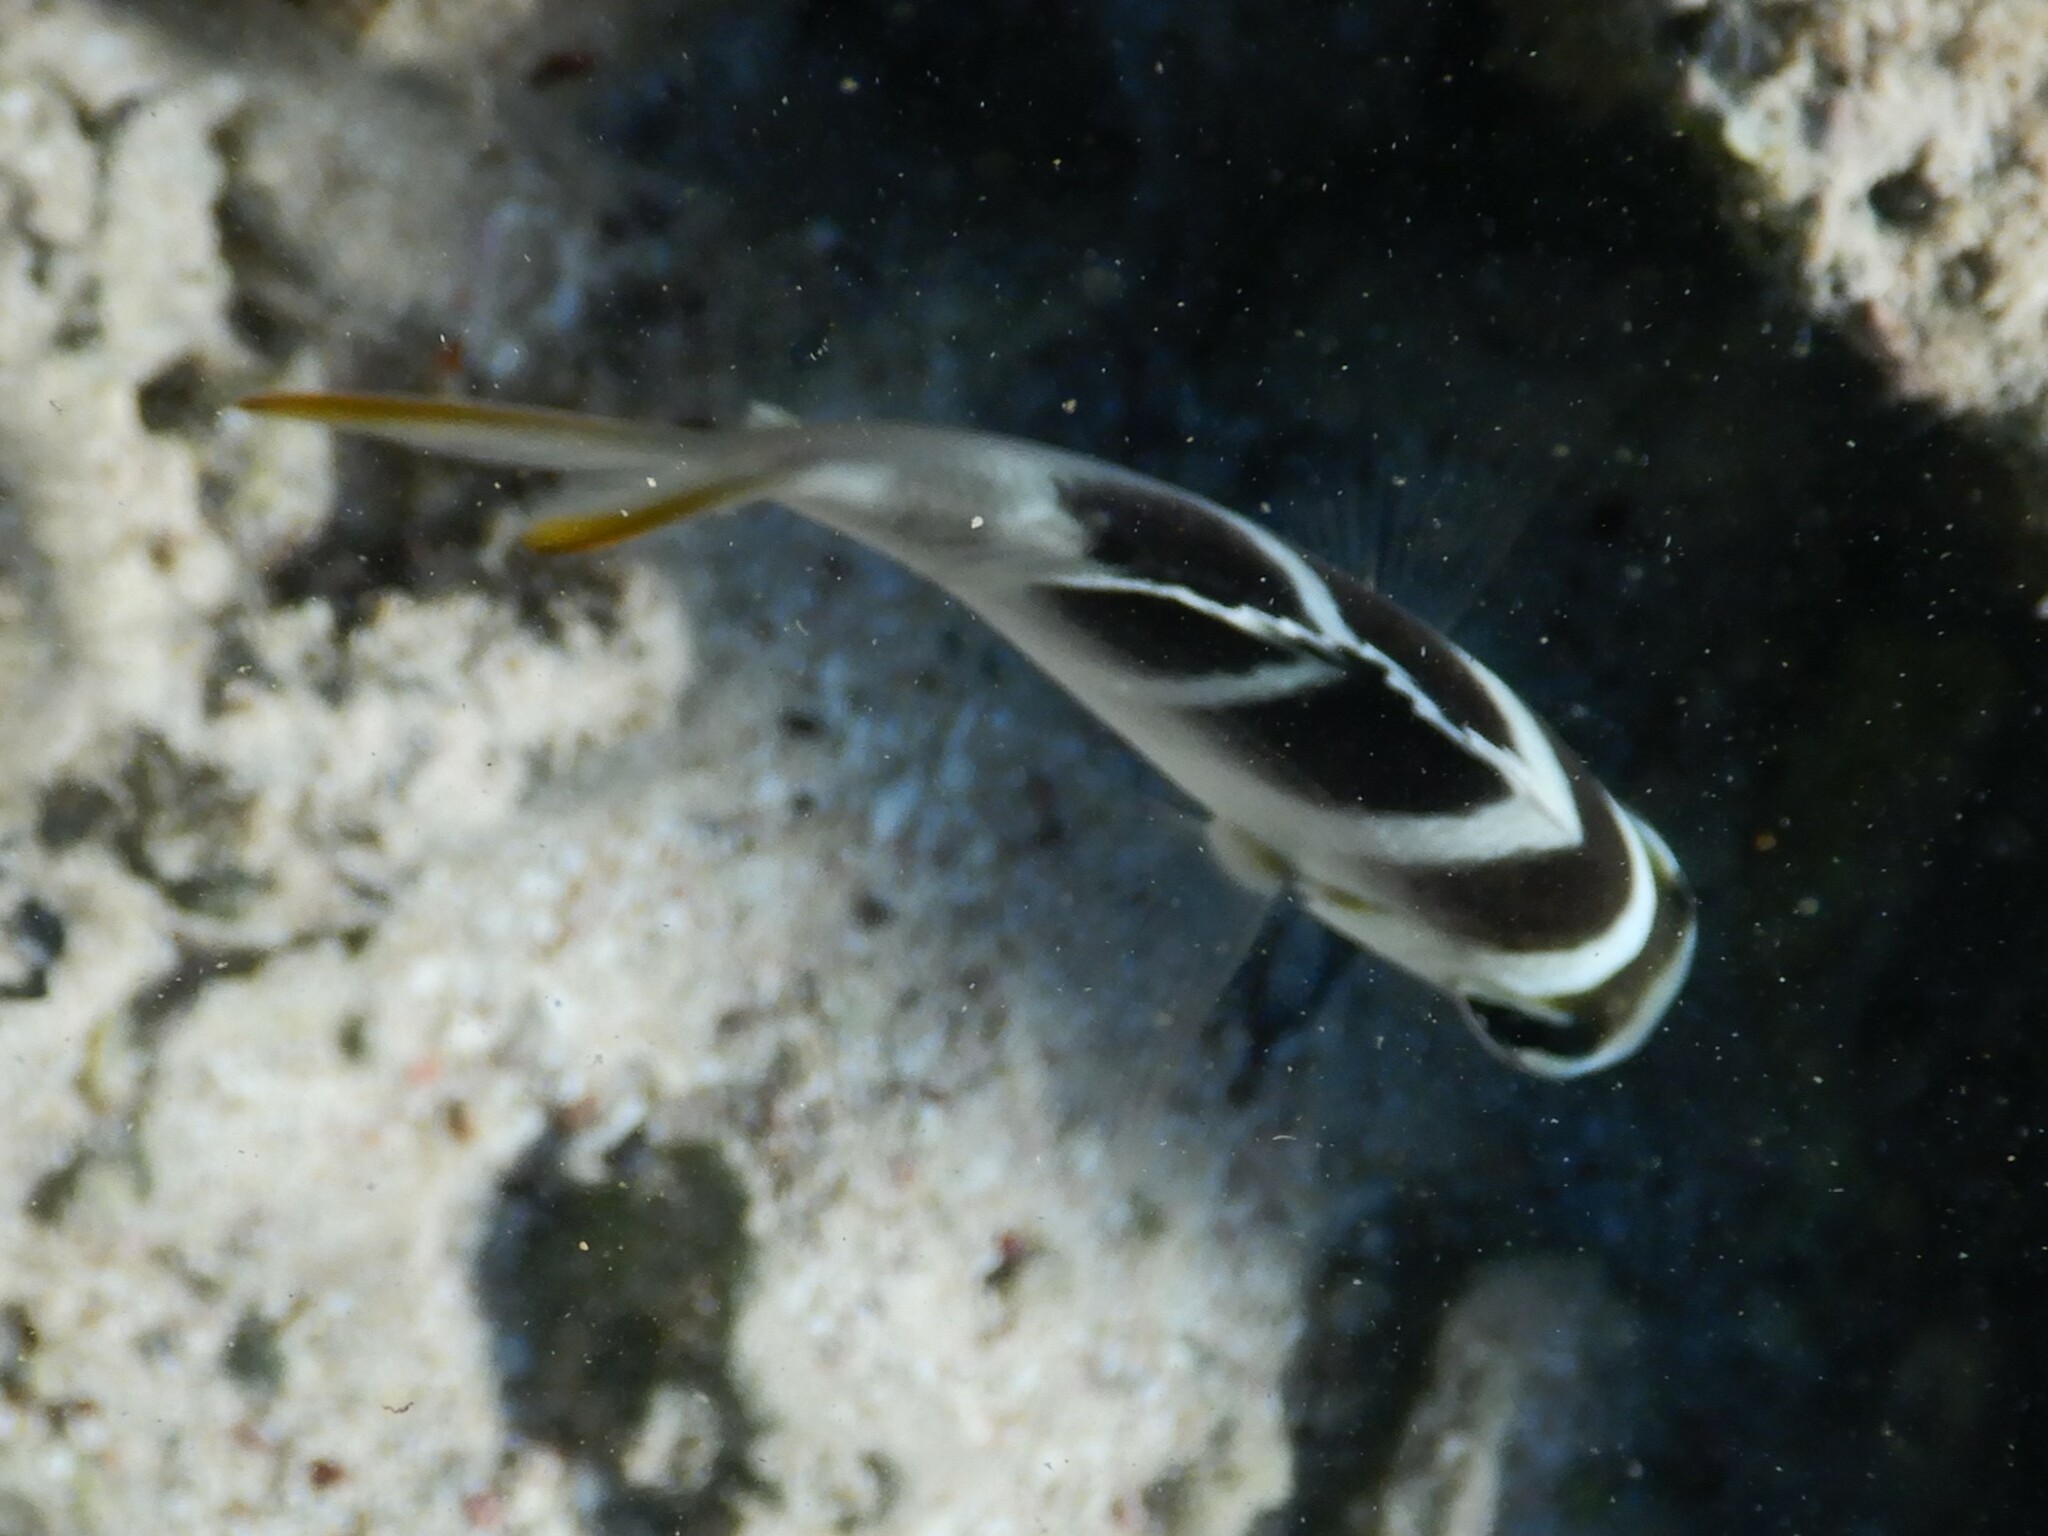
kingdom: Animalia
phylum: Chordata
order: Perciformes
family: Lethrinidae
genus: Monotaxis
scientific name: Monotaxis grandoculis
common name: Bigeye emperor
